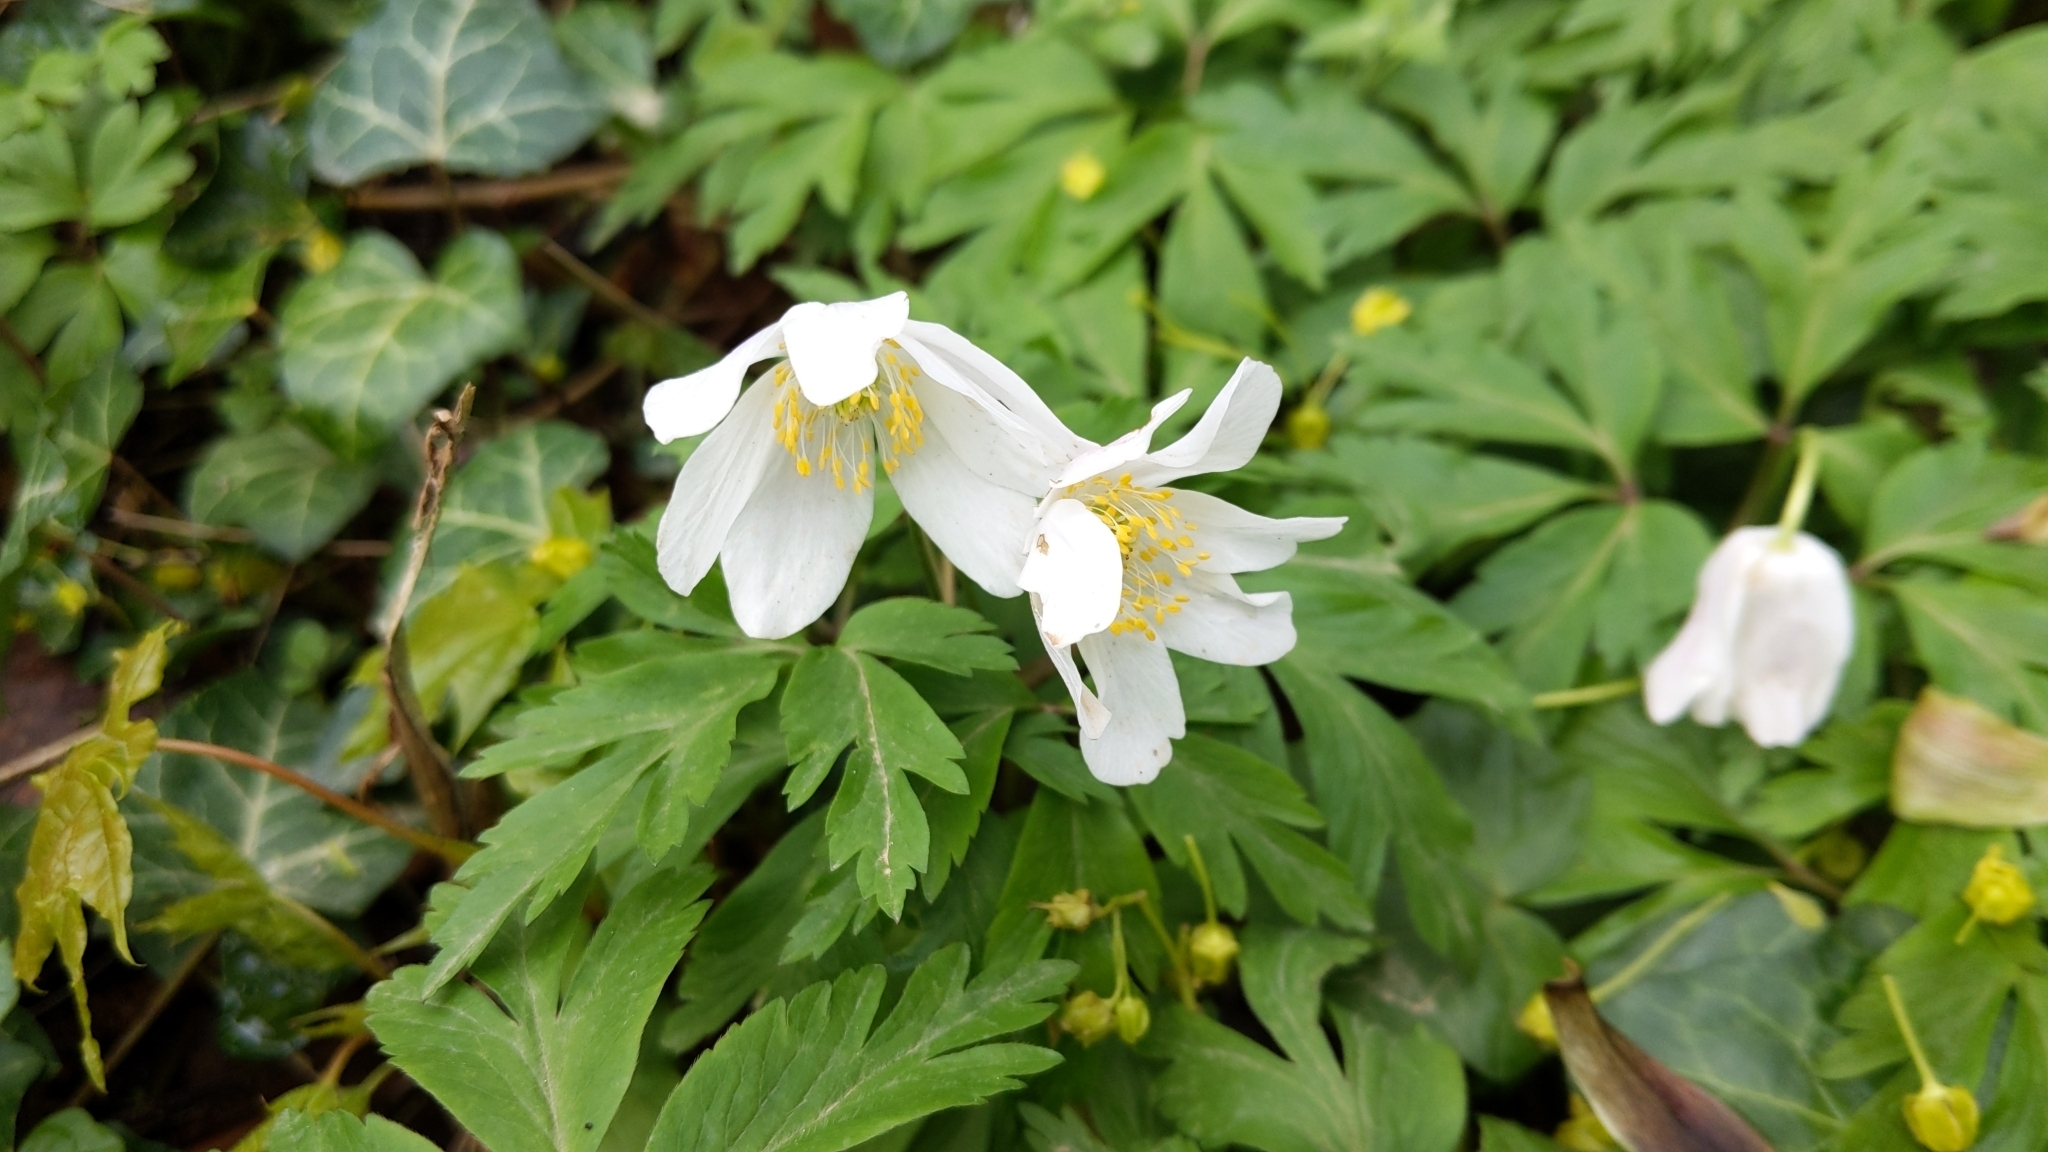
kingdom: Plantae
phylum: Tracheophyta
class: Magnoliopsida
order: Ranunculales
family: Ranunculaceae
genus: Anemone
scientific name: Anemone nemorosa
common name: Wood anemone
